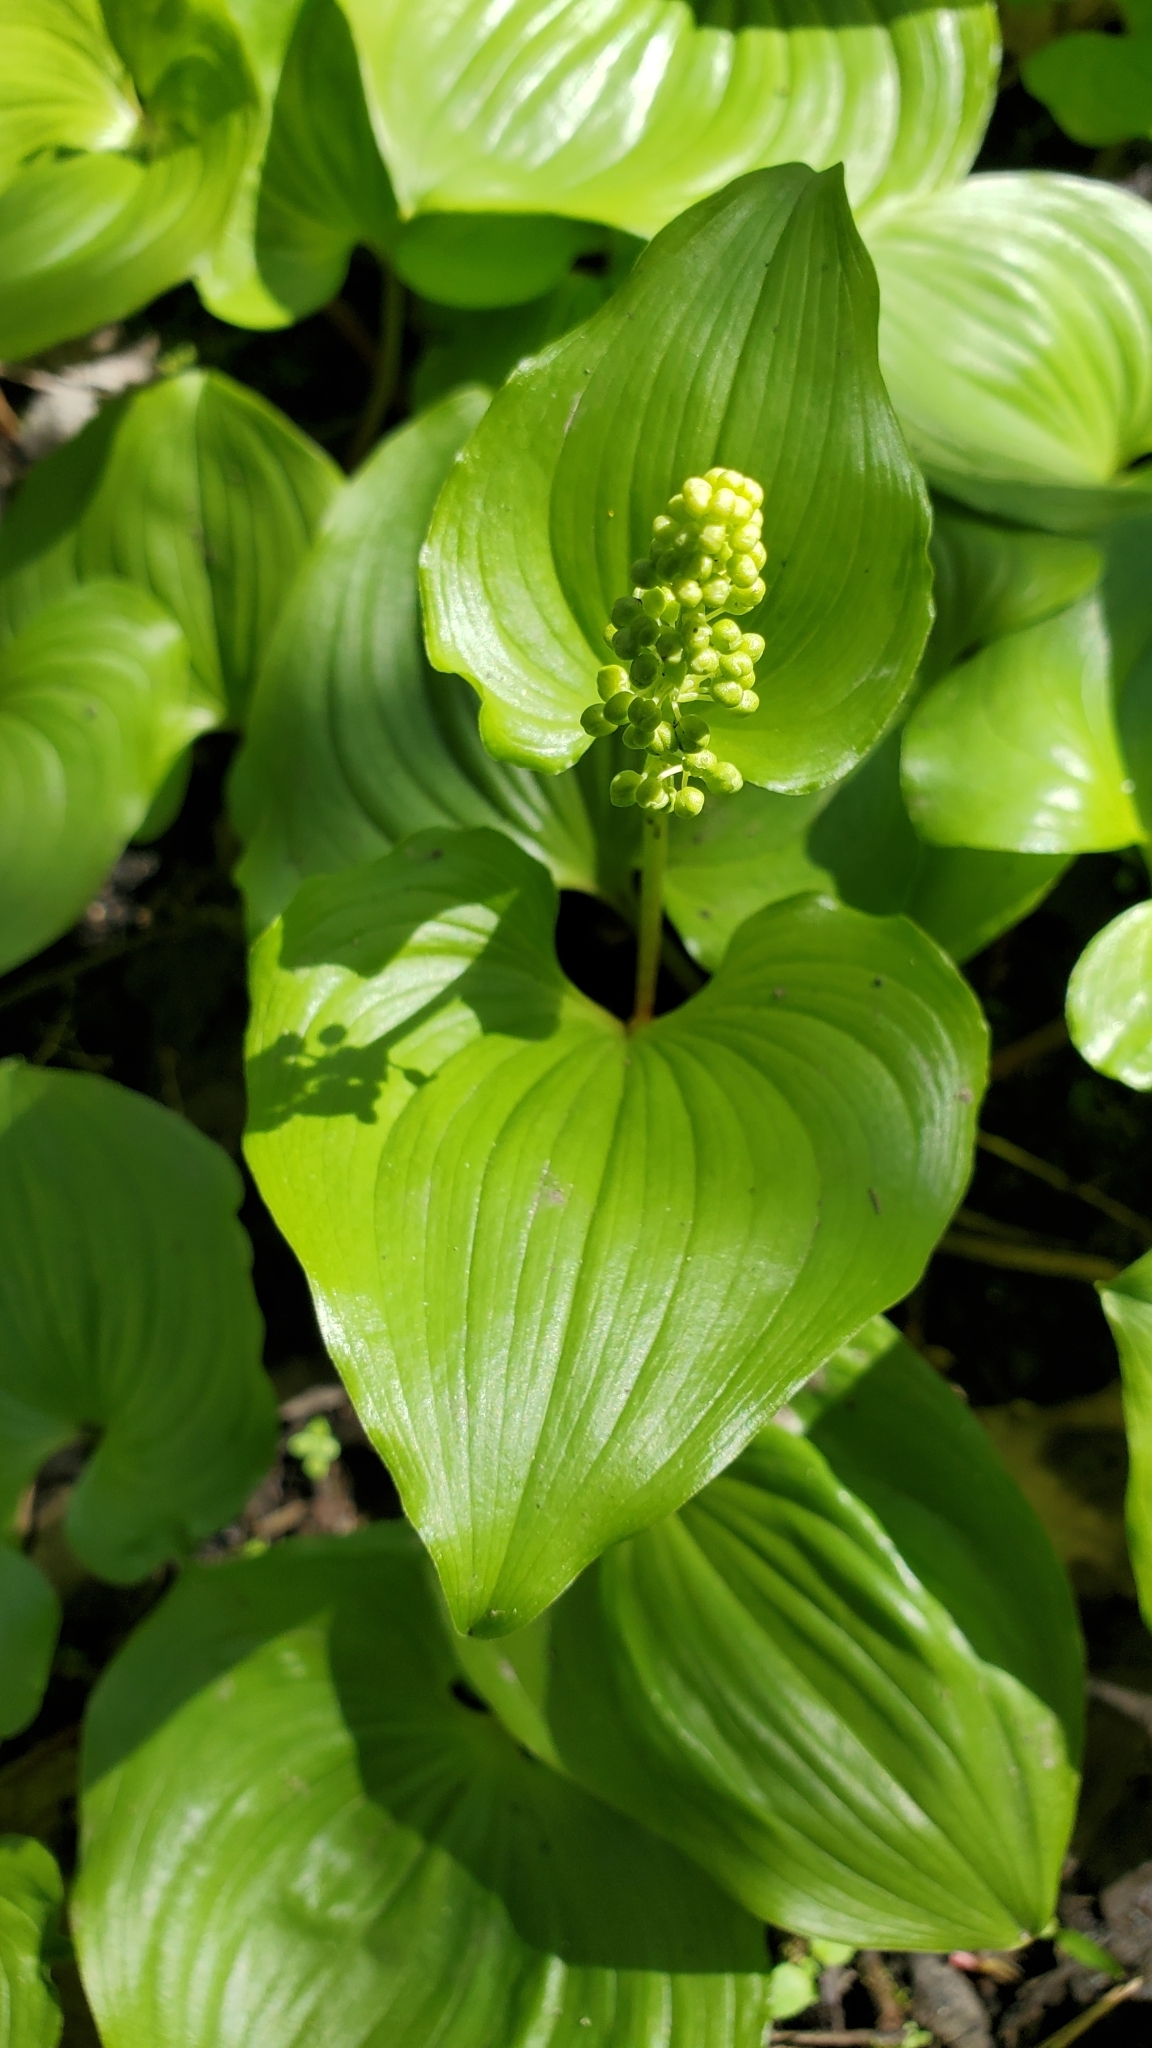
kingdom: Plantae
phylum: Tracheophyta
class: Liliopsida
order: Asparagales
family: Asparagaceae
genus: Maianthemum
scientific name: Maianthemum dilatatum
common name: False lily-of-the-valley
